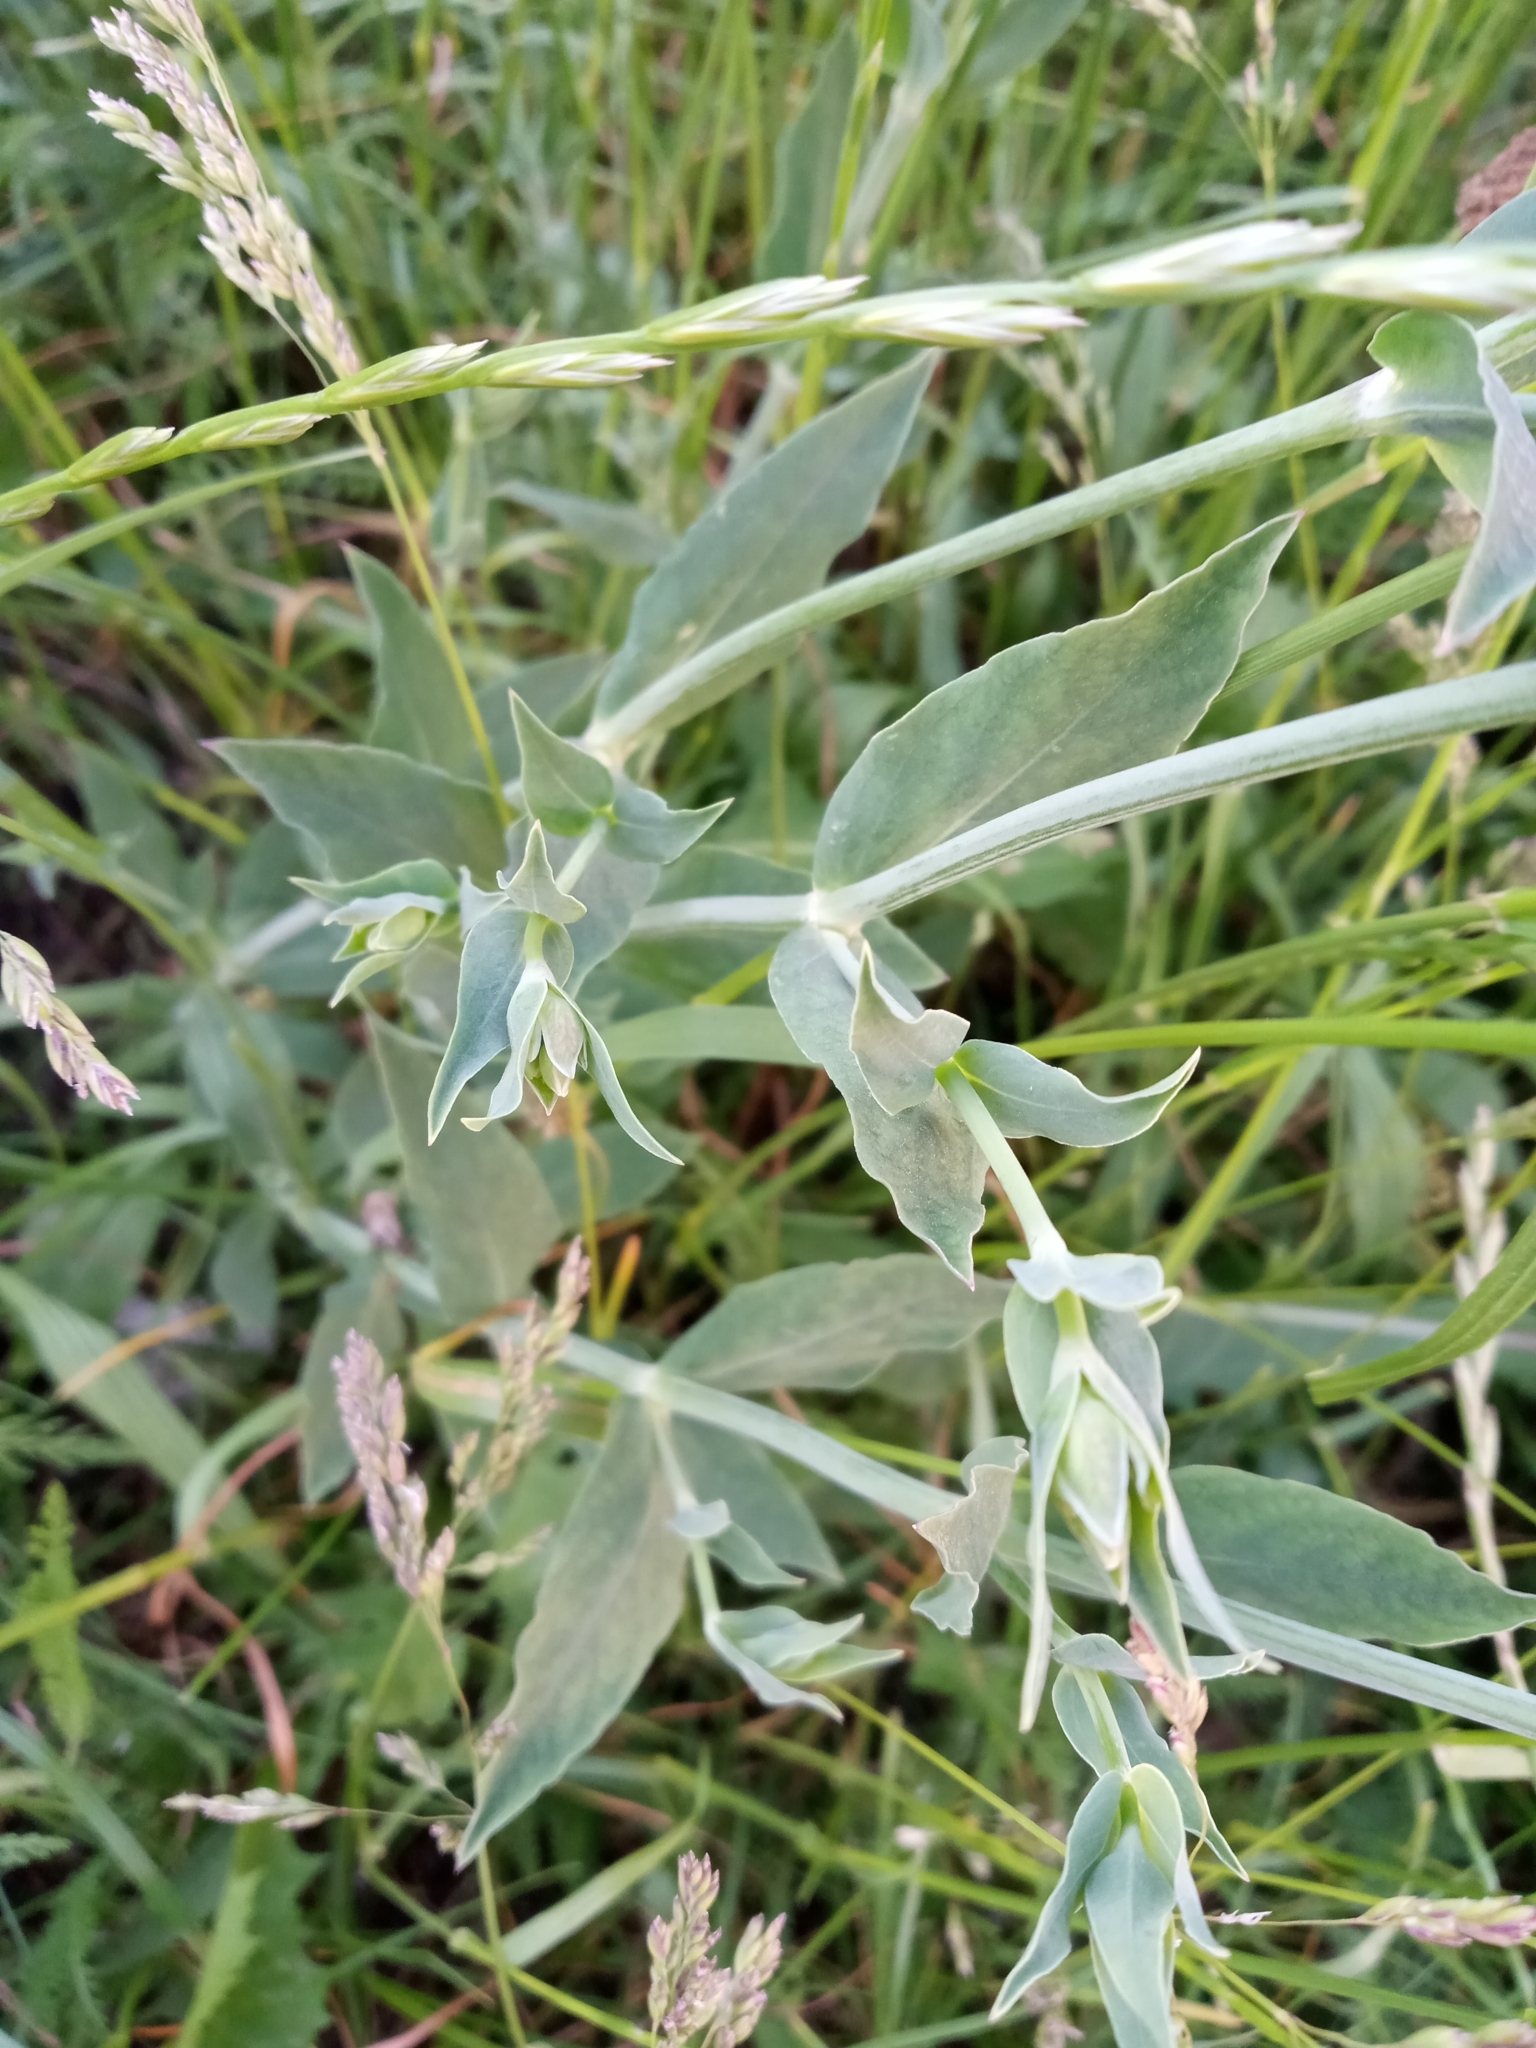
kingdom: Plantae
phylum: Tracheophyta
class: Magnoliopsida
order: Caryophyllales
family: Caryophyllaceae
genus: Silene
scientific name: Silene vulgaris
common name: Bladder campion
